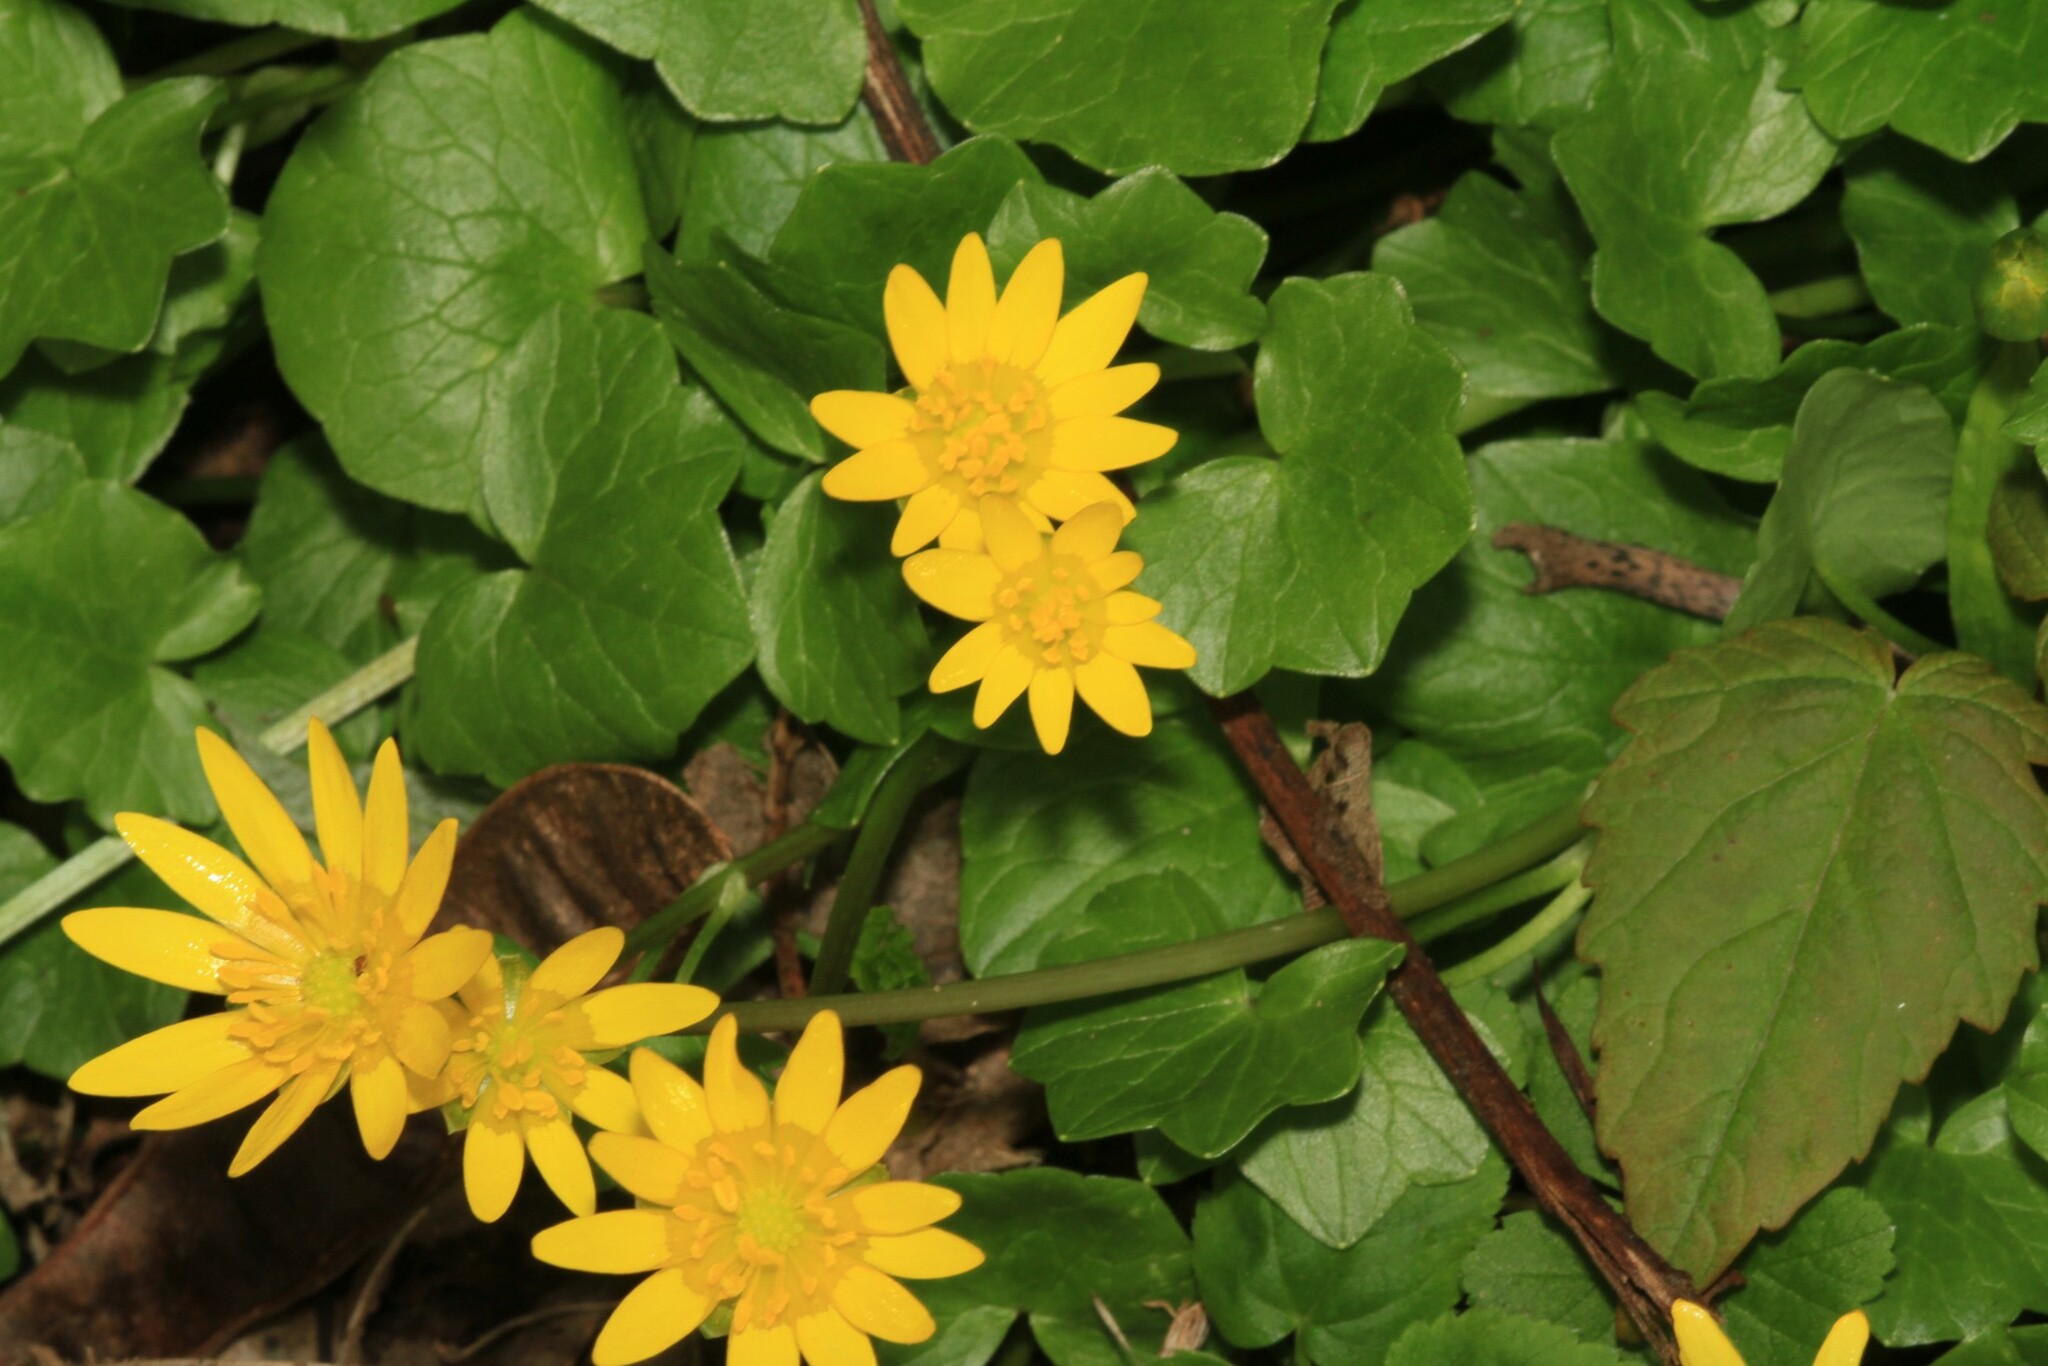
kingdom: Plantae
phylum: Tracheophyta
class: Magnoliopsida
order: Ranunculales
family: Ranunculaceae
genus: Ficaria
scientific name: Ficaria verna
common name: Lesser celandine
